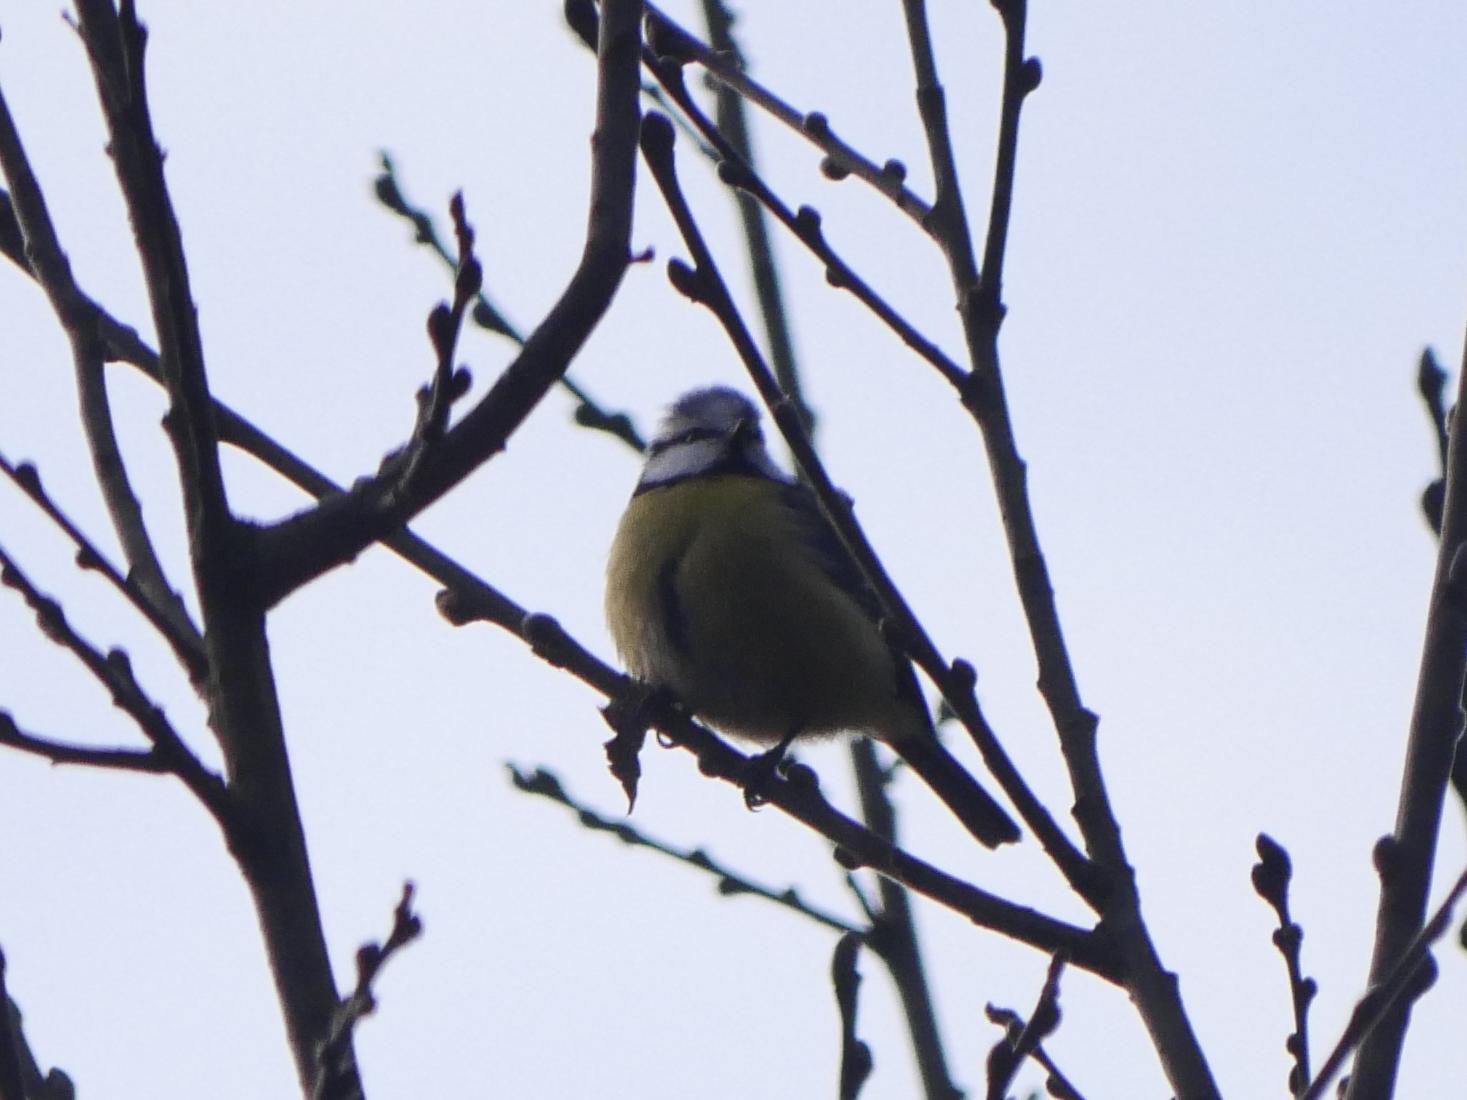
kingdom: Animalia
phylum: Chordata
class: Aves
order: Passeriformes
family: Paridae
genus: Cyanistes
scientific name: Cyanistes caeruleus
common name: Eurasian blue tit
